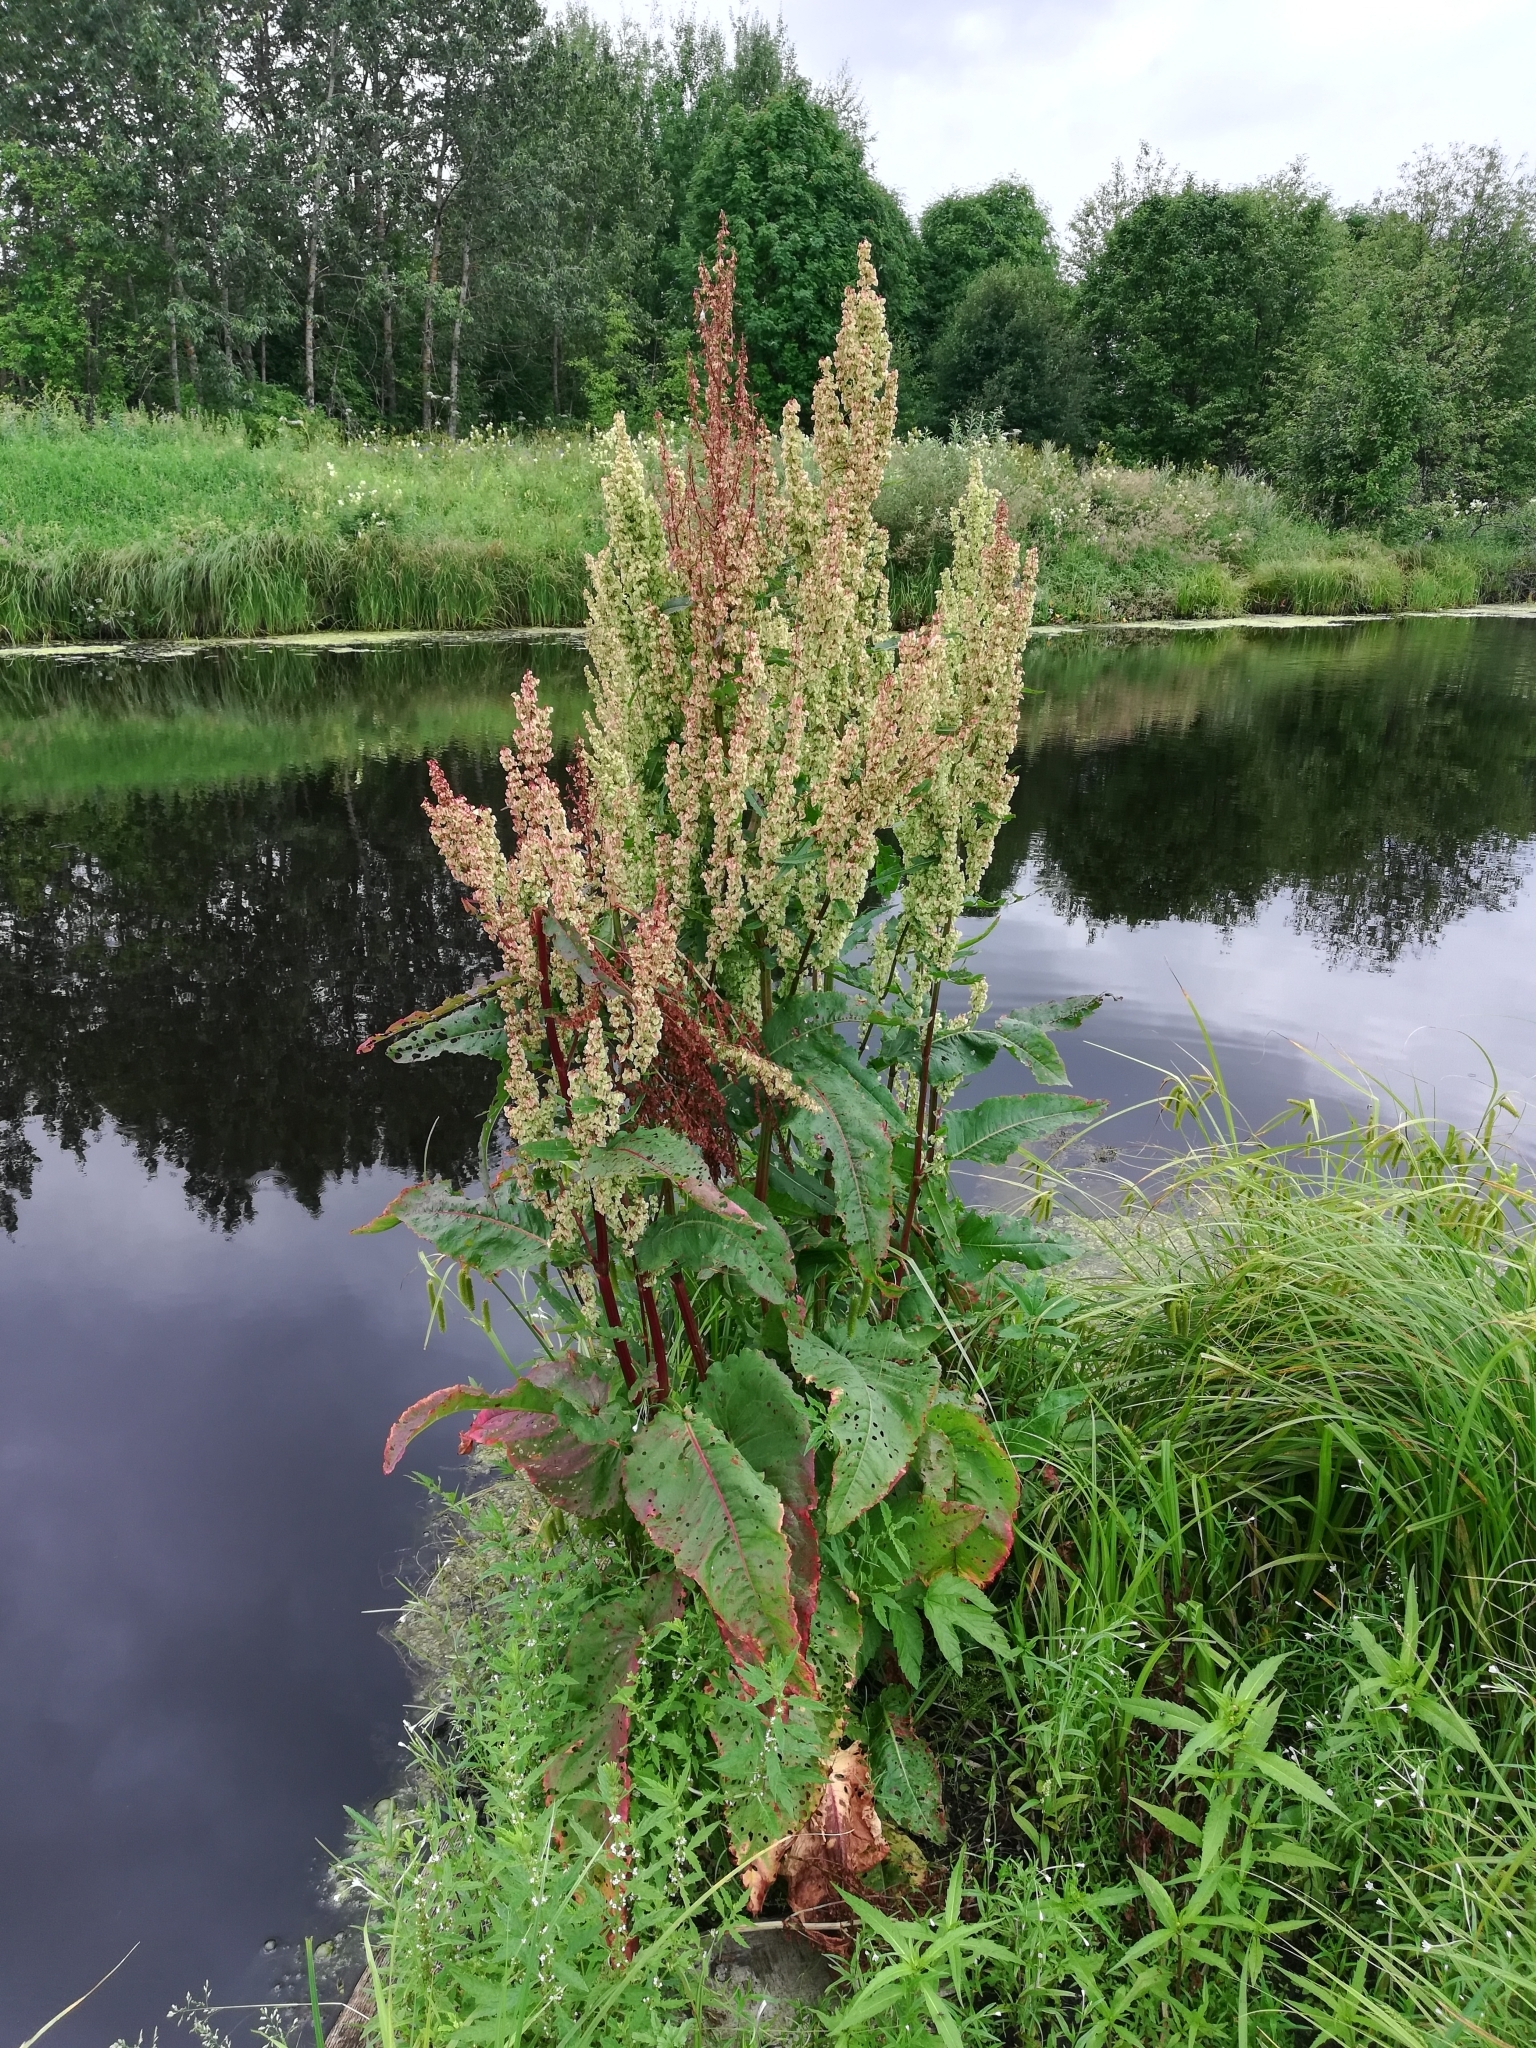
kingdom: Plantae
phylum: Tracheophyta
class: Magnoliopsida
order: Caryophyllales
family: Polygonaceae
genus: Rumex
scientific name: Rumex aquaticus
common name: Scottish dock
